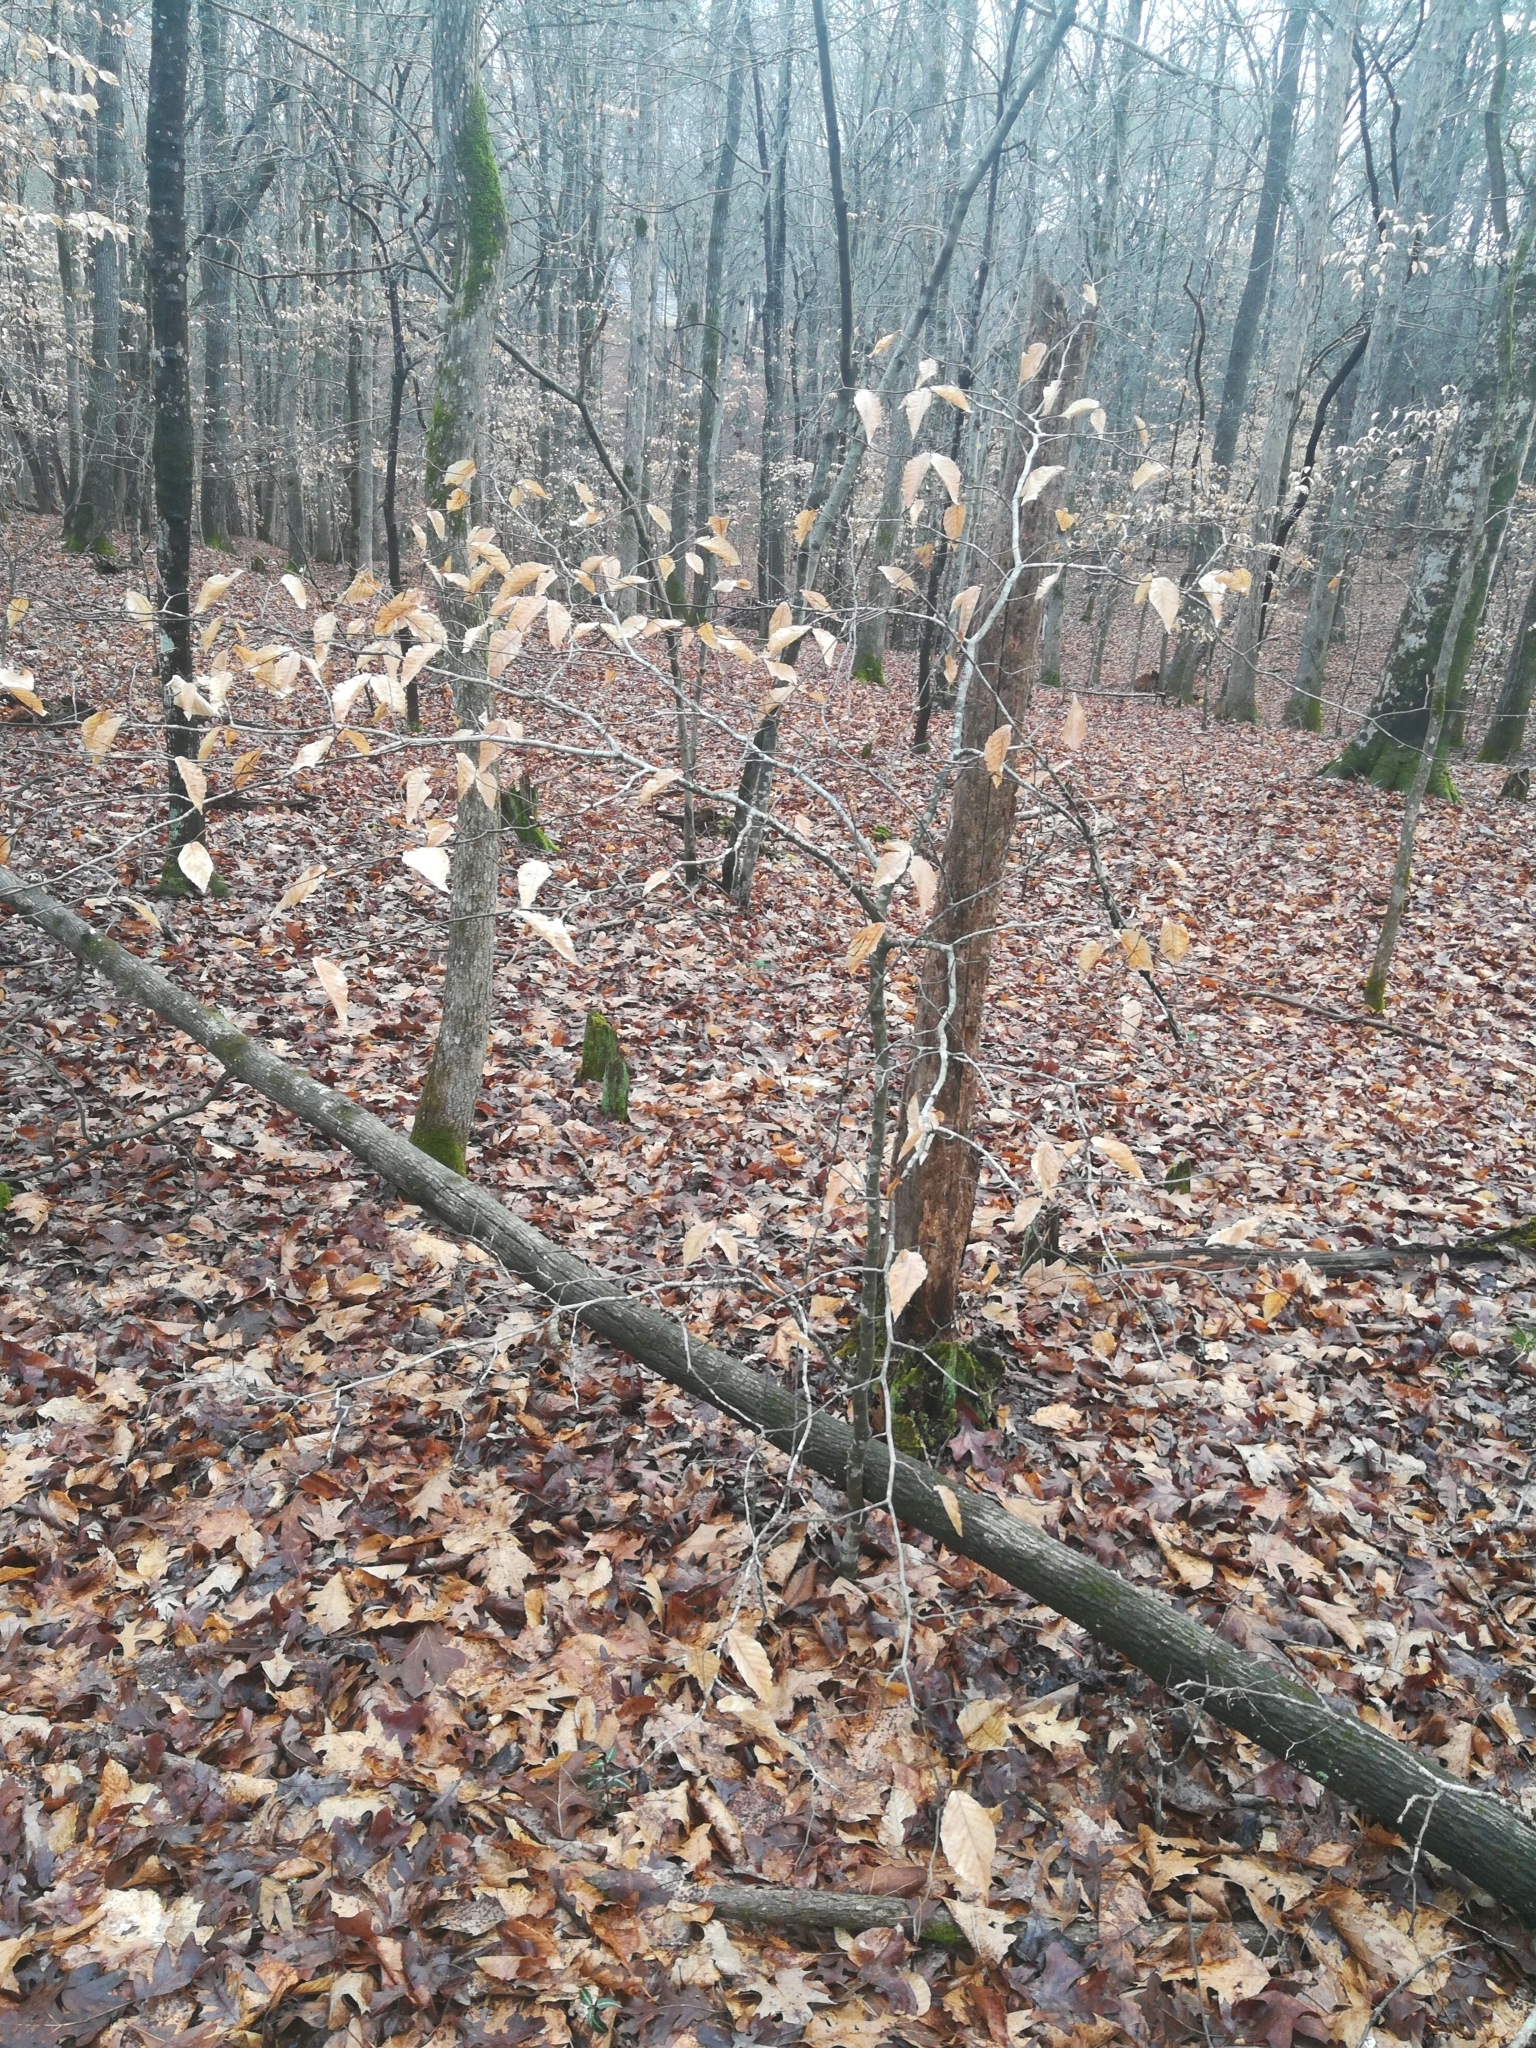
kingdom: Plantae
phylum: Tracheophyta
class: Magnoliopsida
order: Fagales
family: Fagaceae
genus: Fagus
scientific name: Fagus grandifolia
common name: American beech
